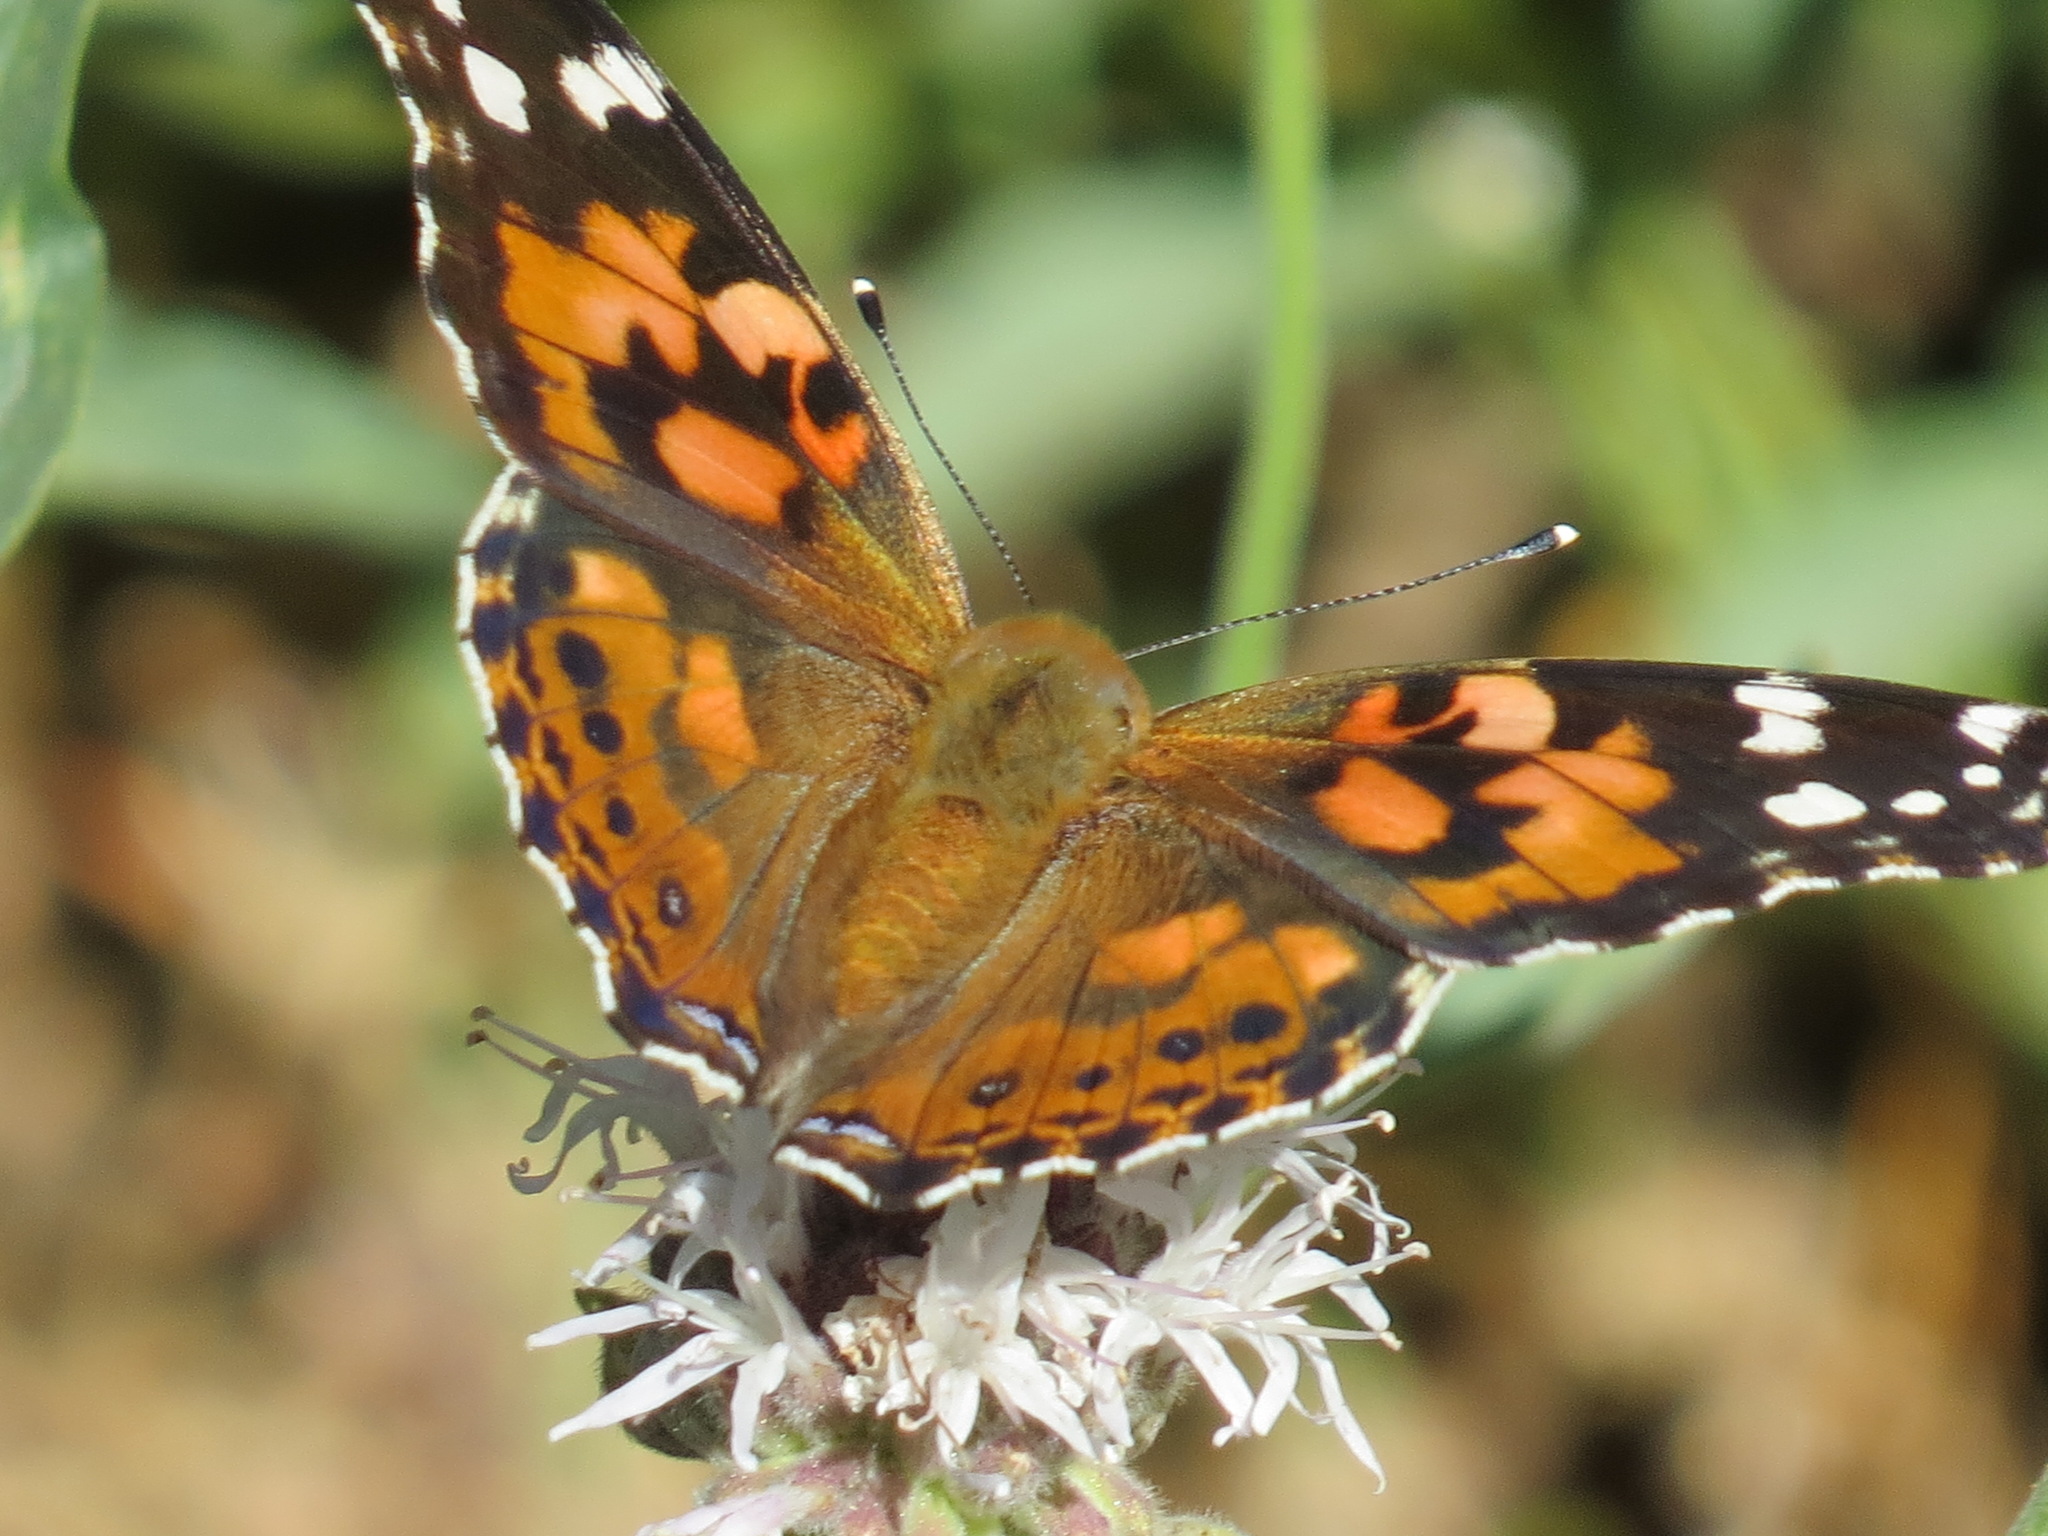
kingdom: Animalia
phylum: Arthropoda
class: Insecta
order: Lepidoptera
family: Nymphalidae
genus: Vanessa
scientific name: Vanessa cardui
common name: Painted lady
